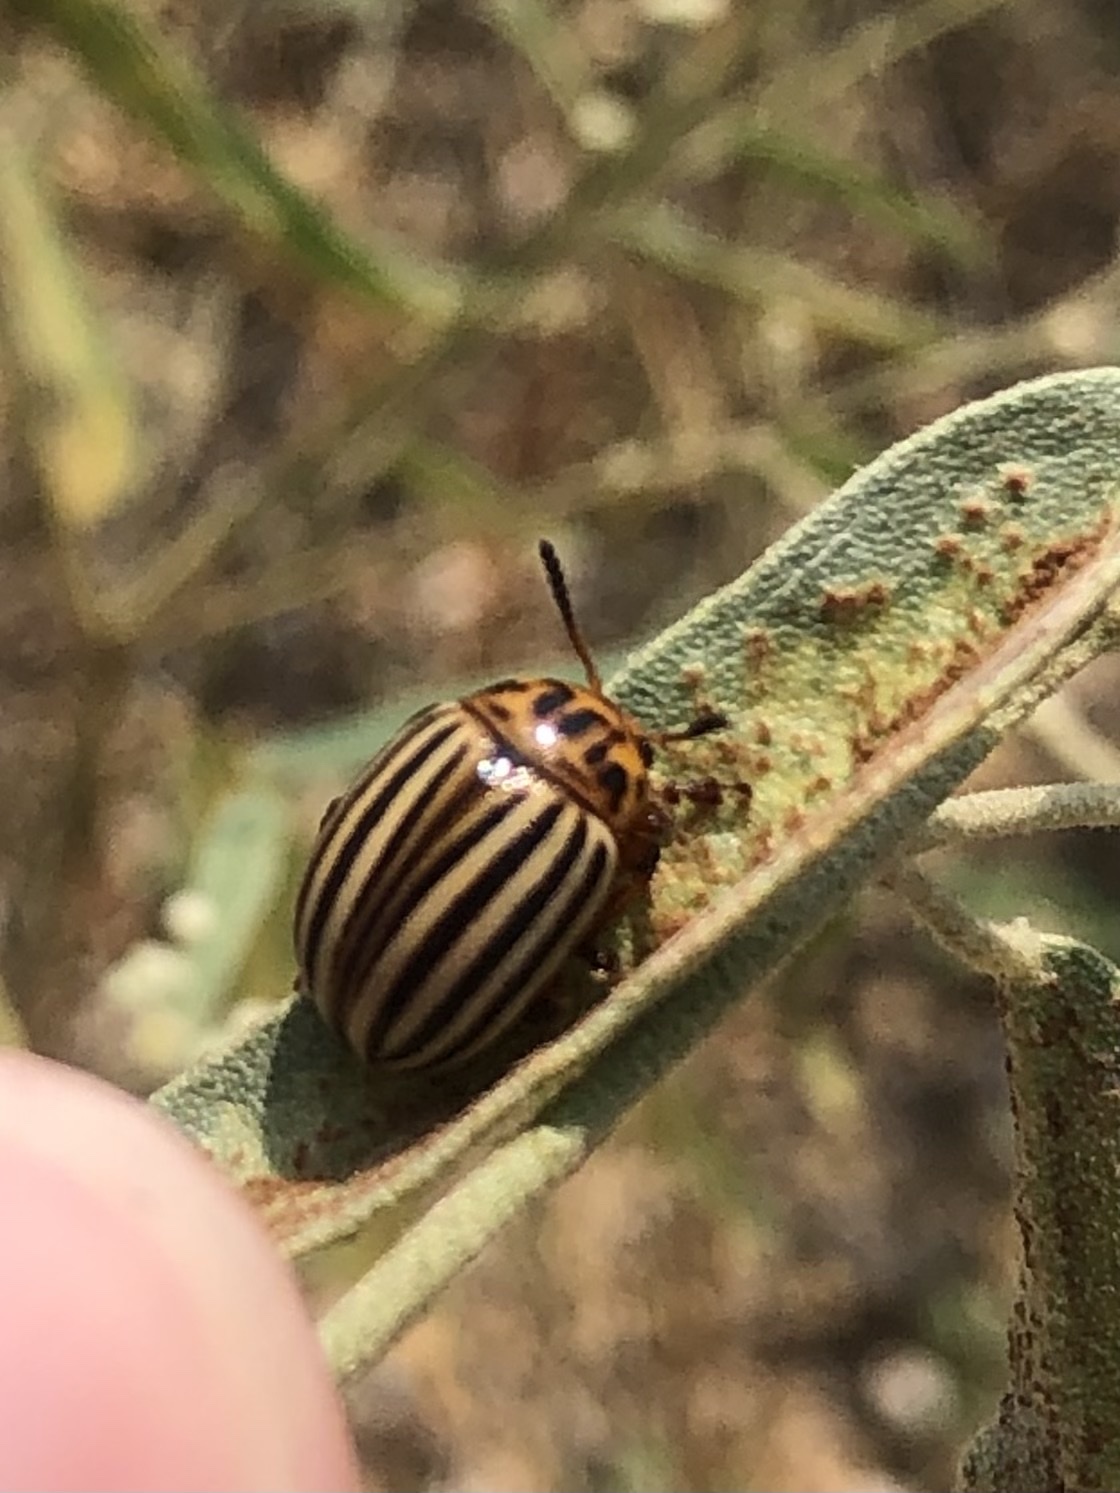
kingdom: Animalia
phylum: Arthropoda
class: Insecta
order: Coleoptera
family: Chrysomelidae
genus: Leptinotarsa
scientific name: Leptinotarsa decemlineata
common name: Colorado potato beetle
